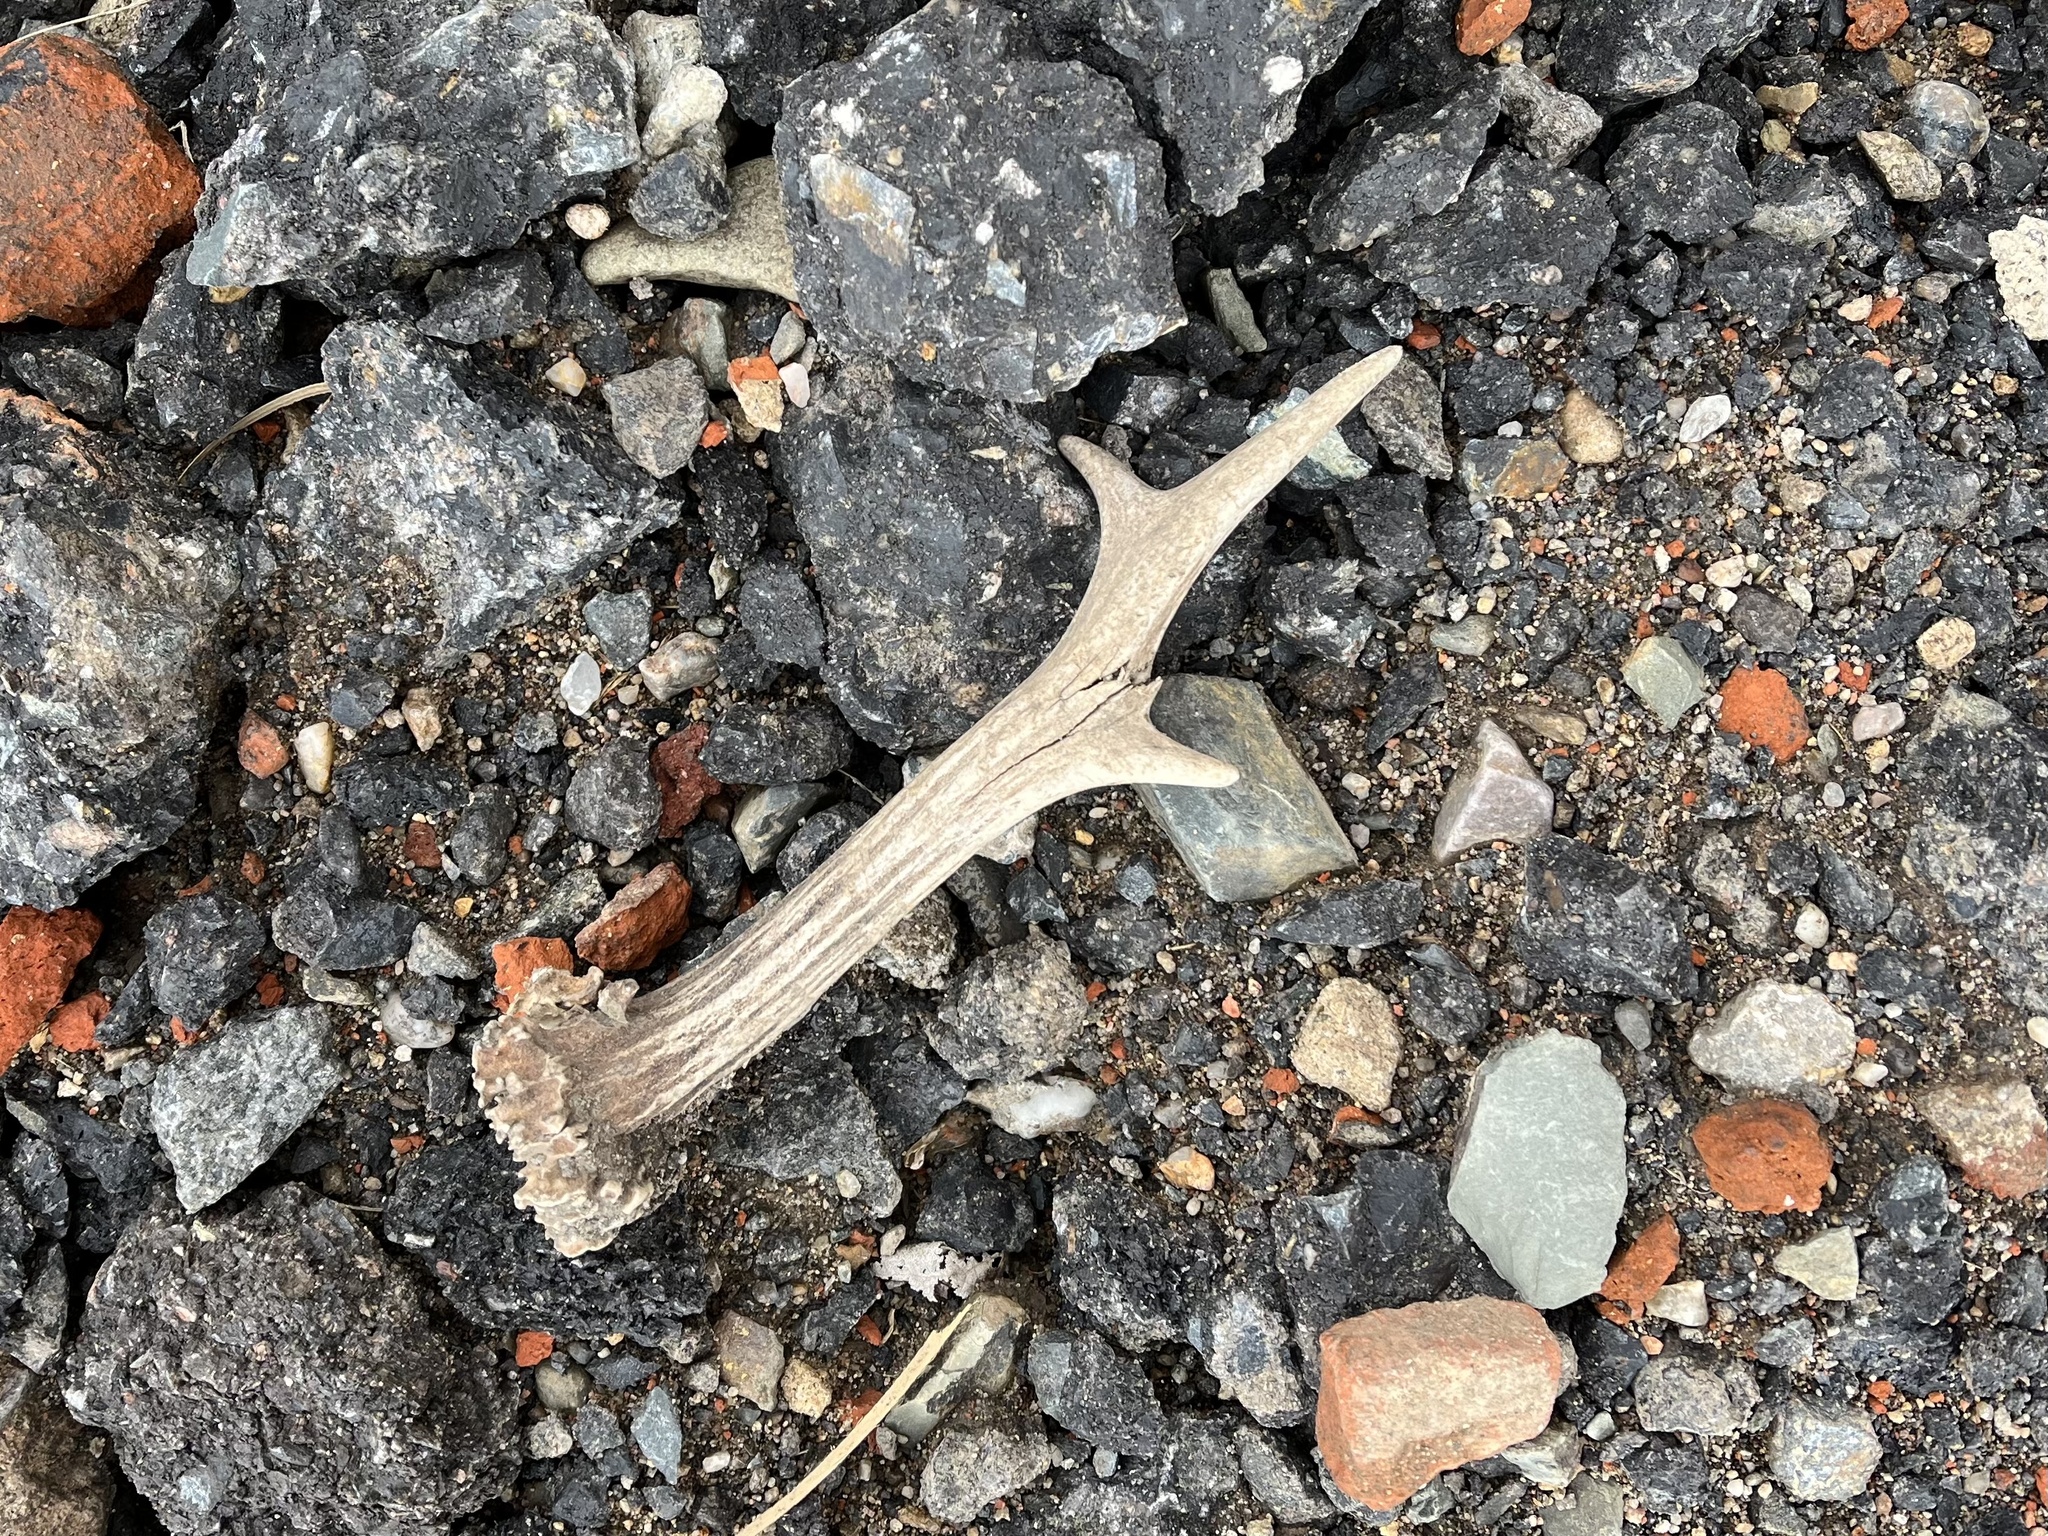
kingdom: Animalia
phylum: Chordata
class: Mammalia
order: Artiodactyla
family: Cervidae
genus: Capreolus
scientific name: Capreolus capreolus
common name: Western roe deer
